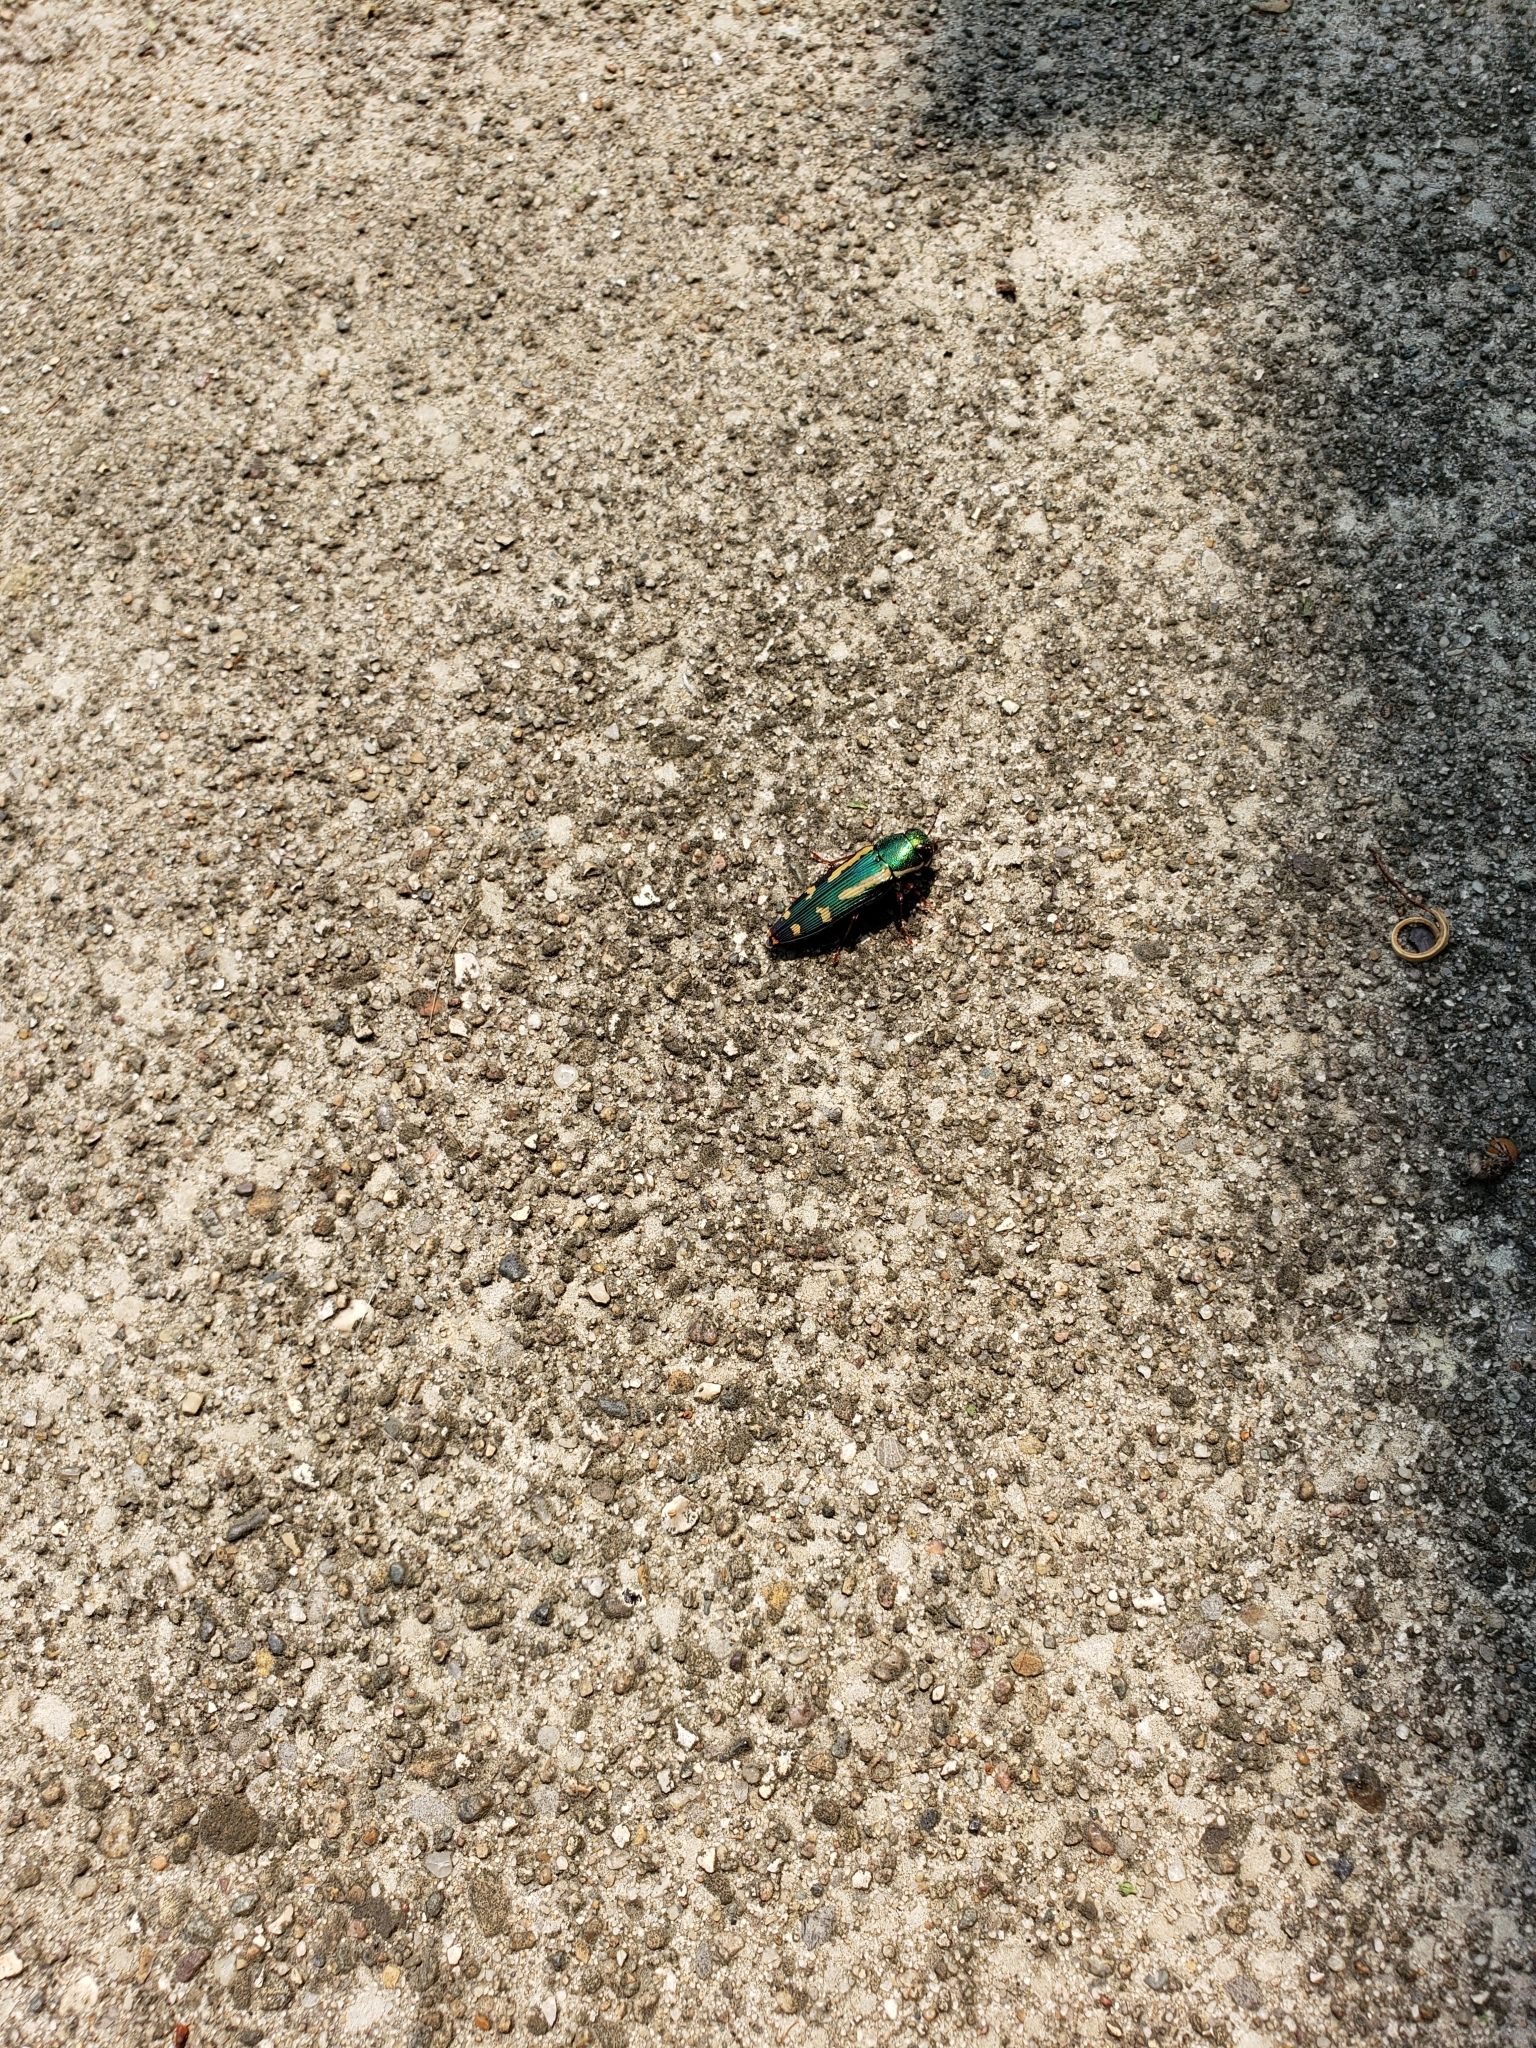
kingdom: Animalia
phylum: Arthropoda
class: Insecta
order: Coleoptera
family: Buprestidae
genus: Buprestis
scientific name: Buprestis rufipes
